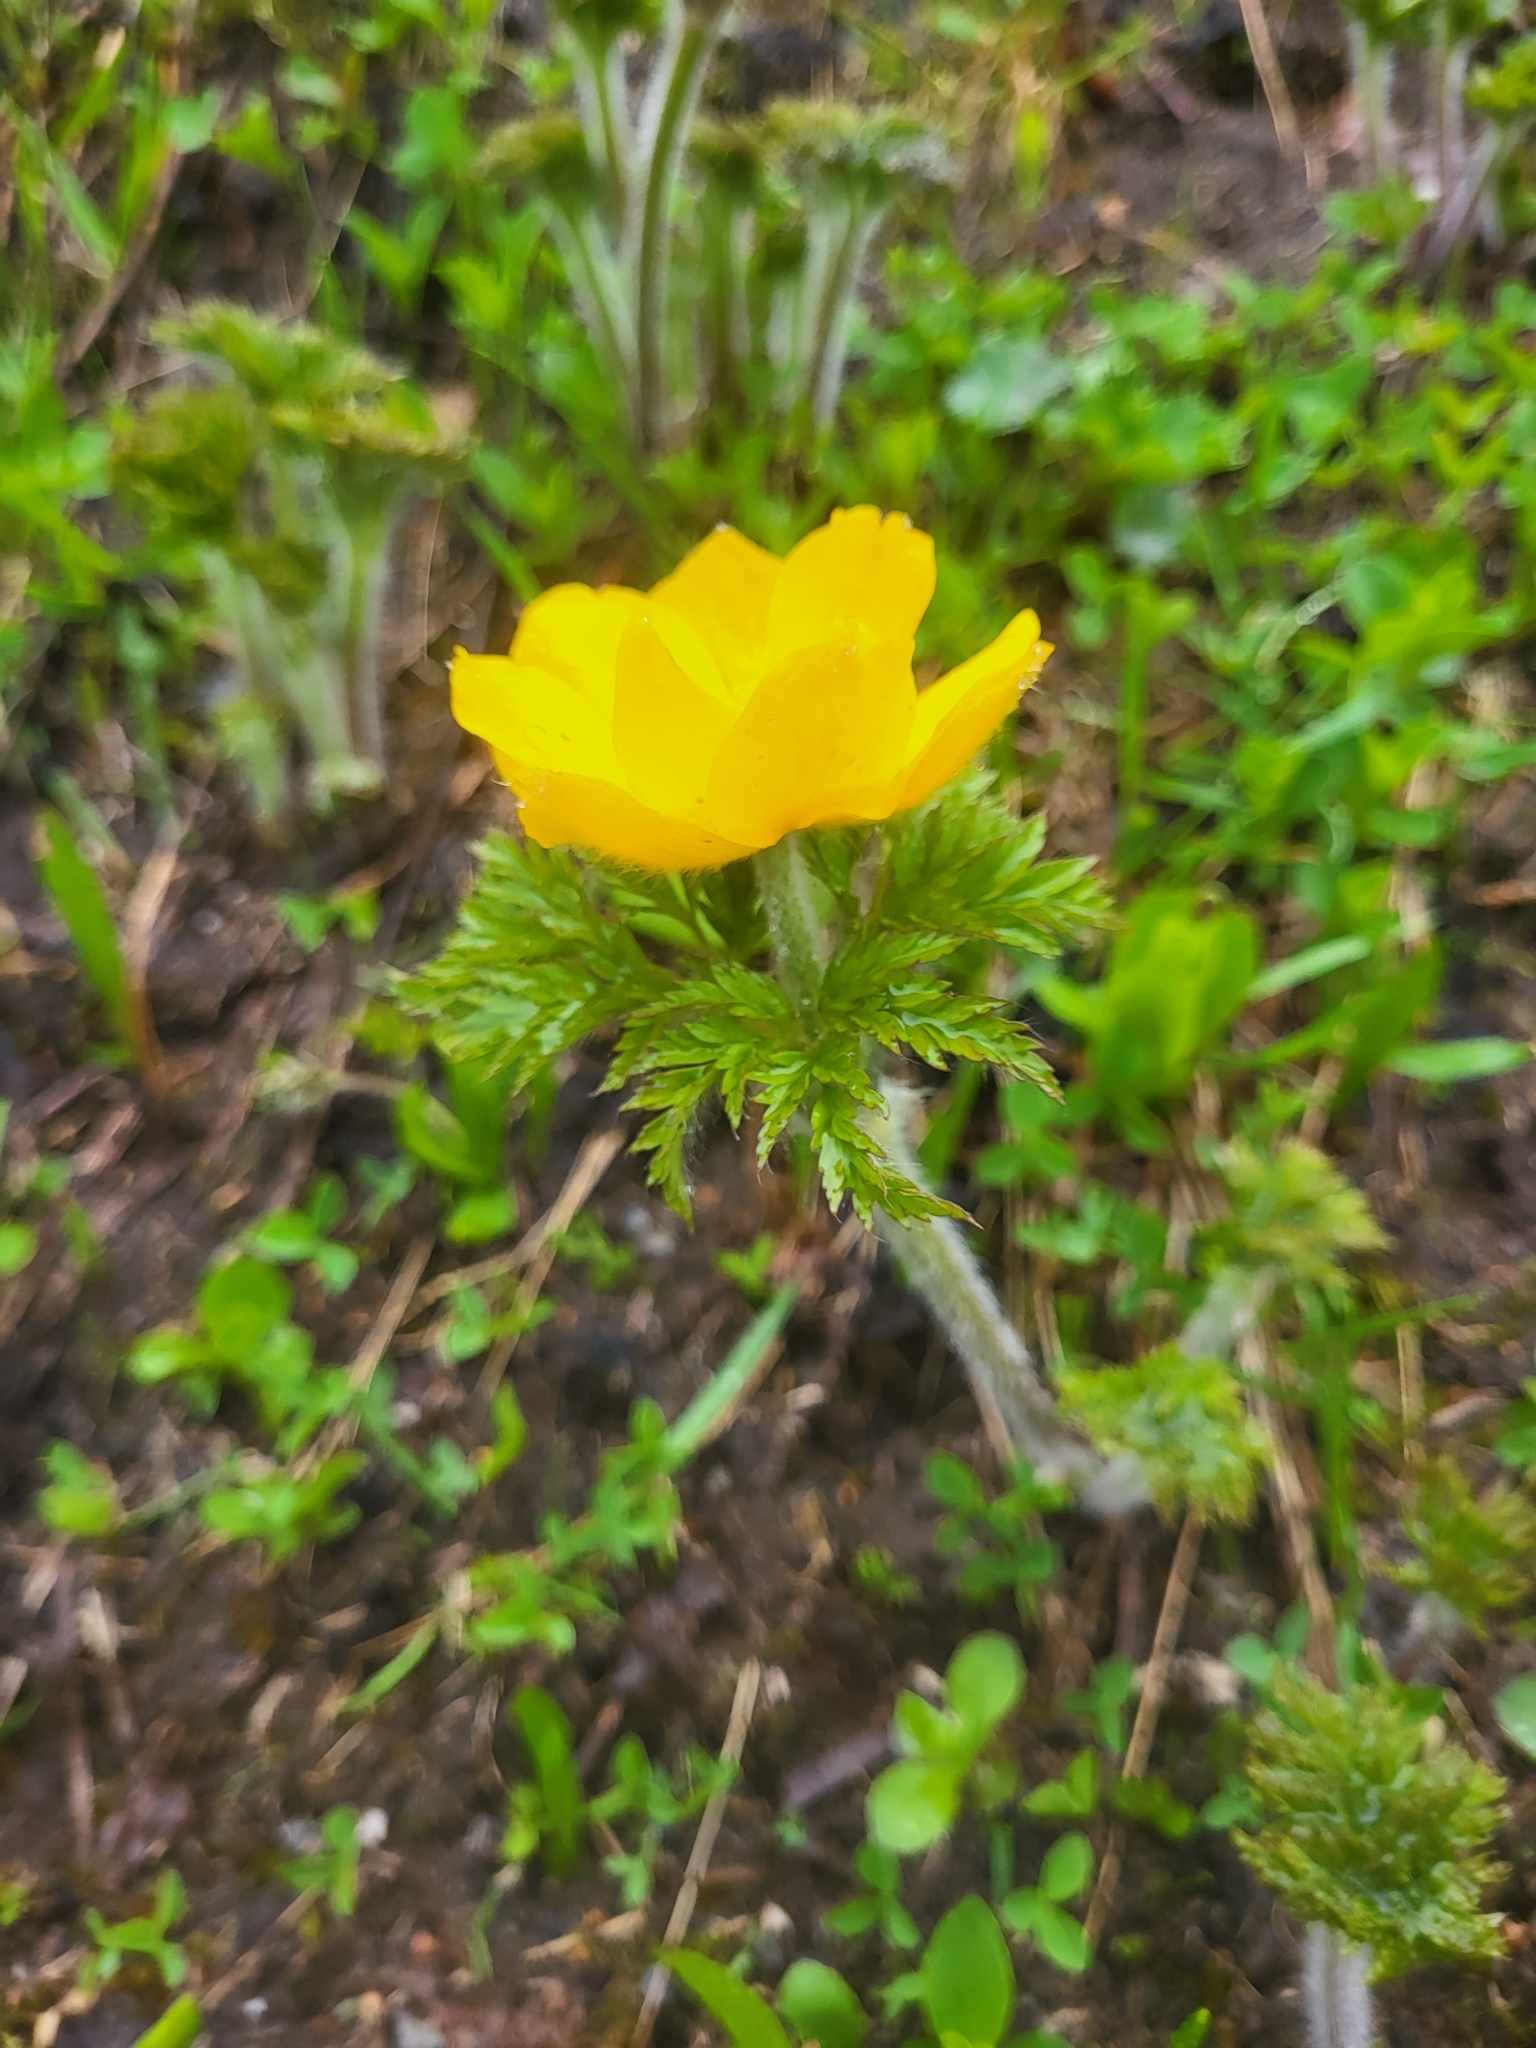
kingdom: Plantae
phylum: Tracheophyta
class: Magnoliopsida
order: Ranunculales
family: Ranunculaceae
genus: Trollius
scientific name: Trollius ranunculinus
